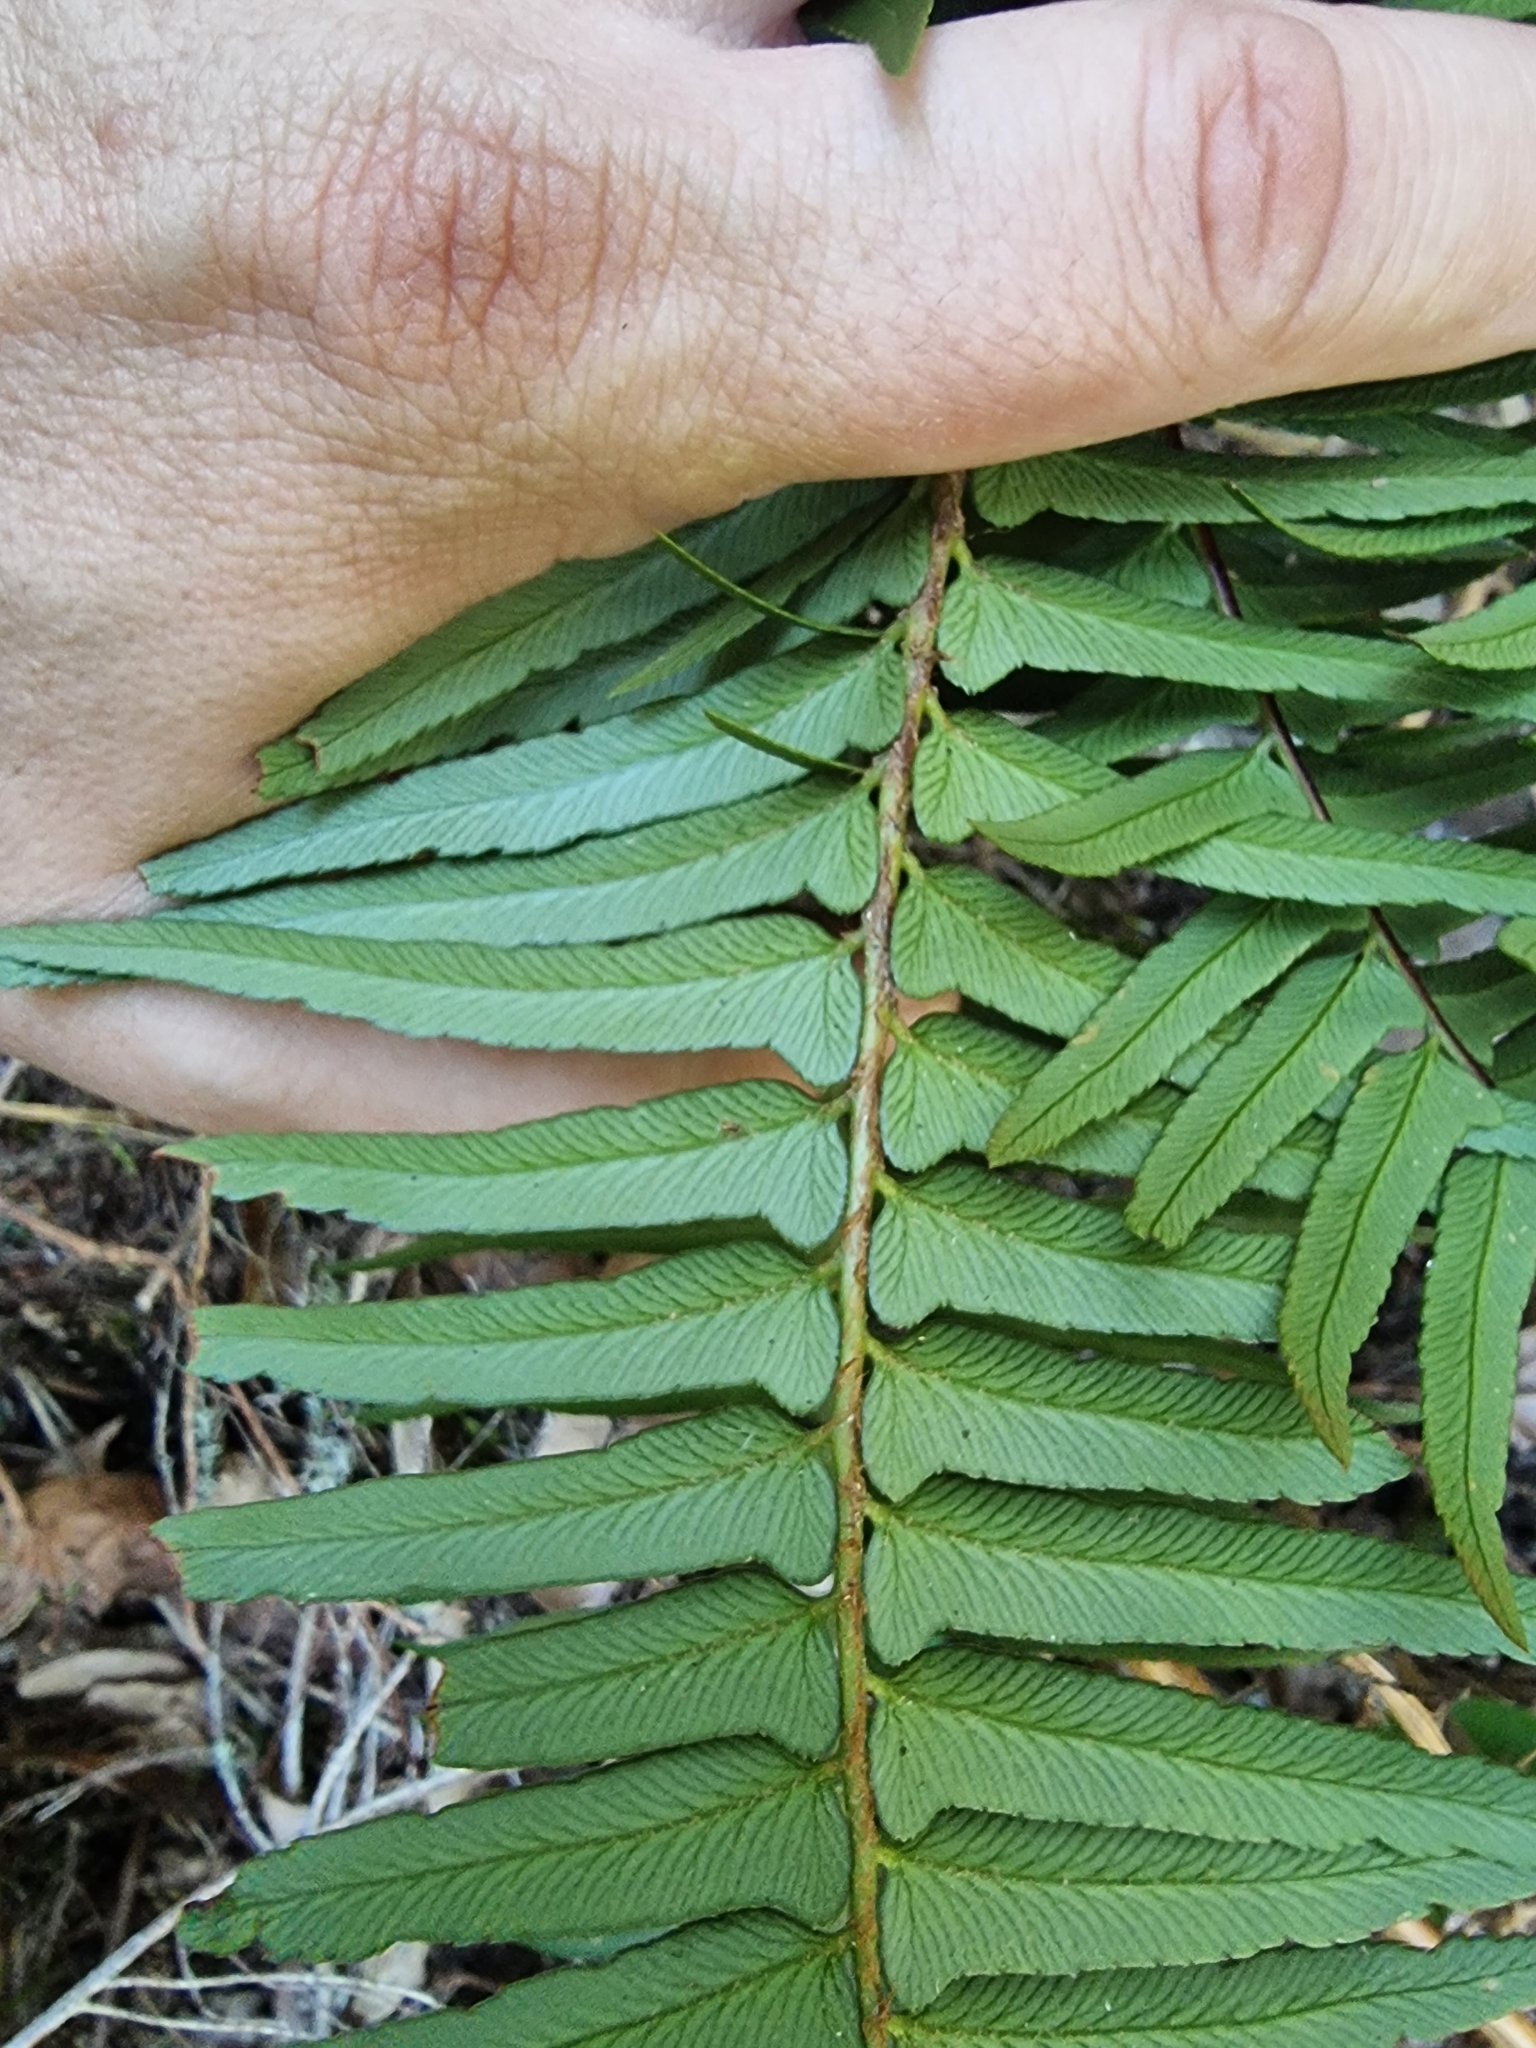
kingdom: Plantae
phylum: Tracheophyta
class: Polypodiopsida
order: Polypodiales
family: Blechnaceae
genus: Struthiopteris
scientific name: Struthiopteris spicant
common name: Deer fern
